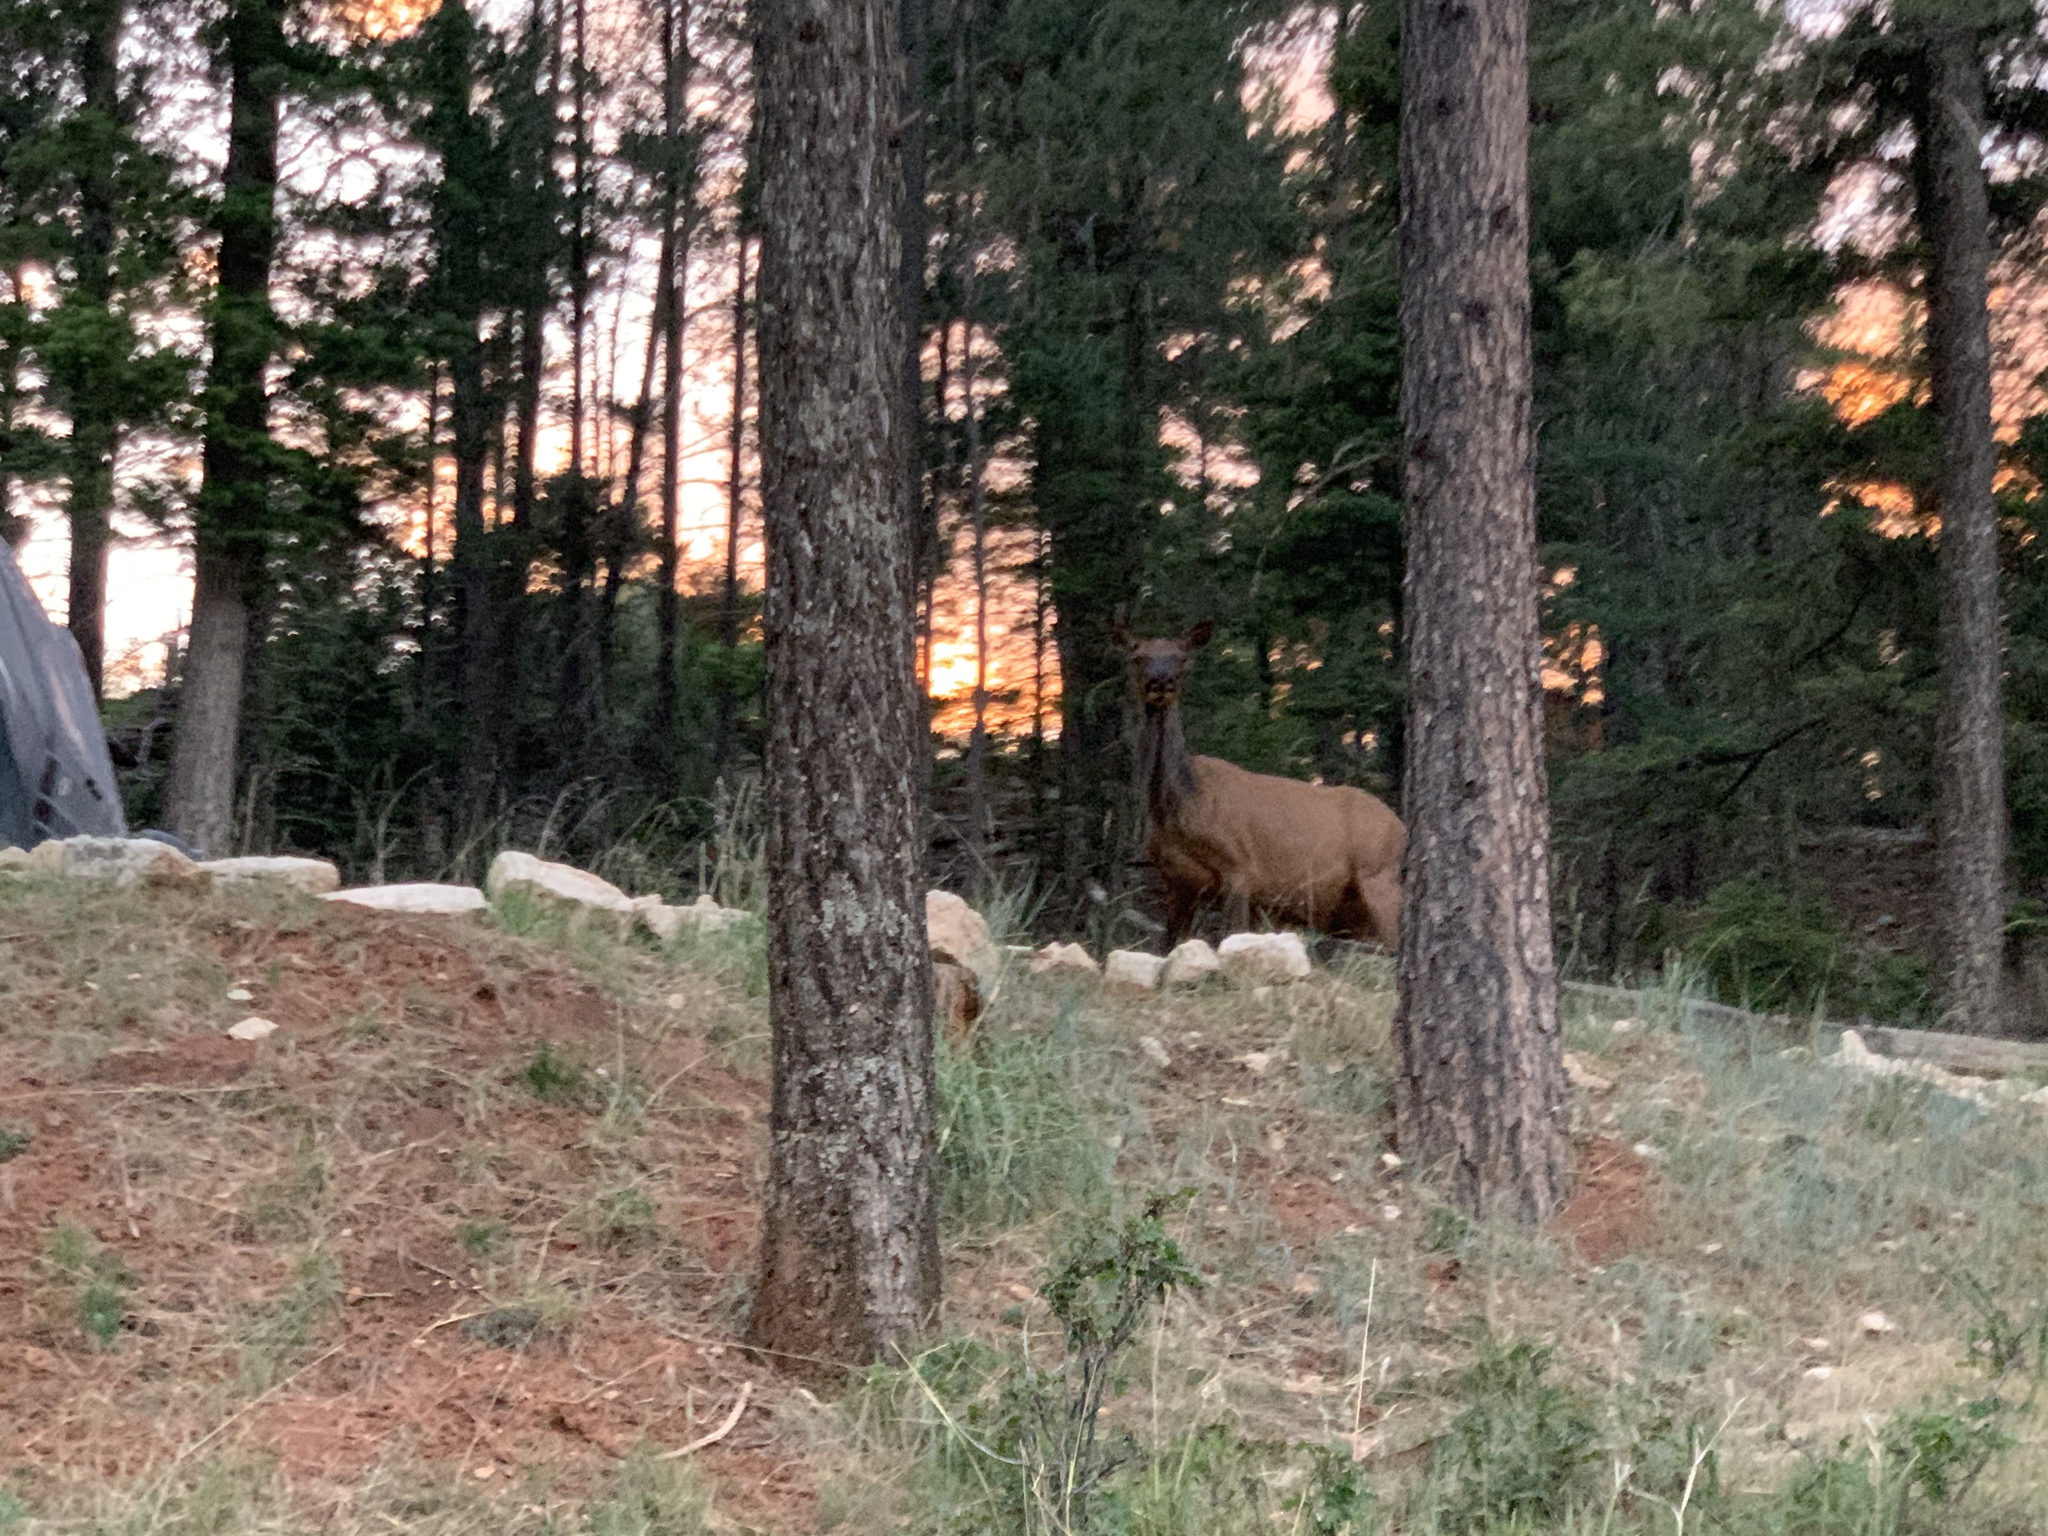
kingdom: Animalia
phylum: Chordata
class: Mammalia
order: Artiodactyla
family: Cervidae
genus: Cervus
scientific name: Cervus elaphus
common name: Red deer
